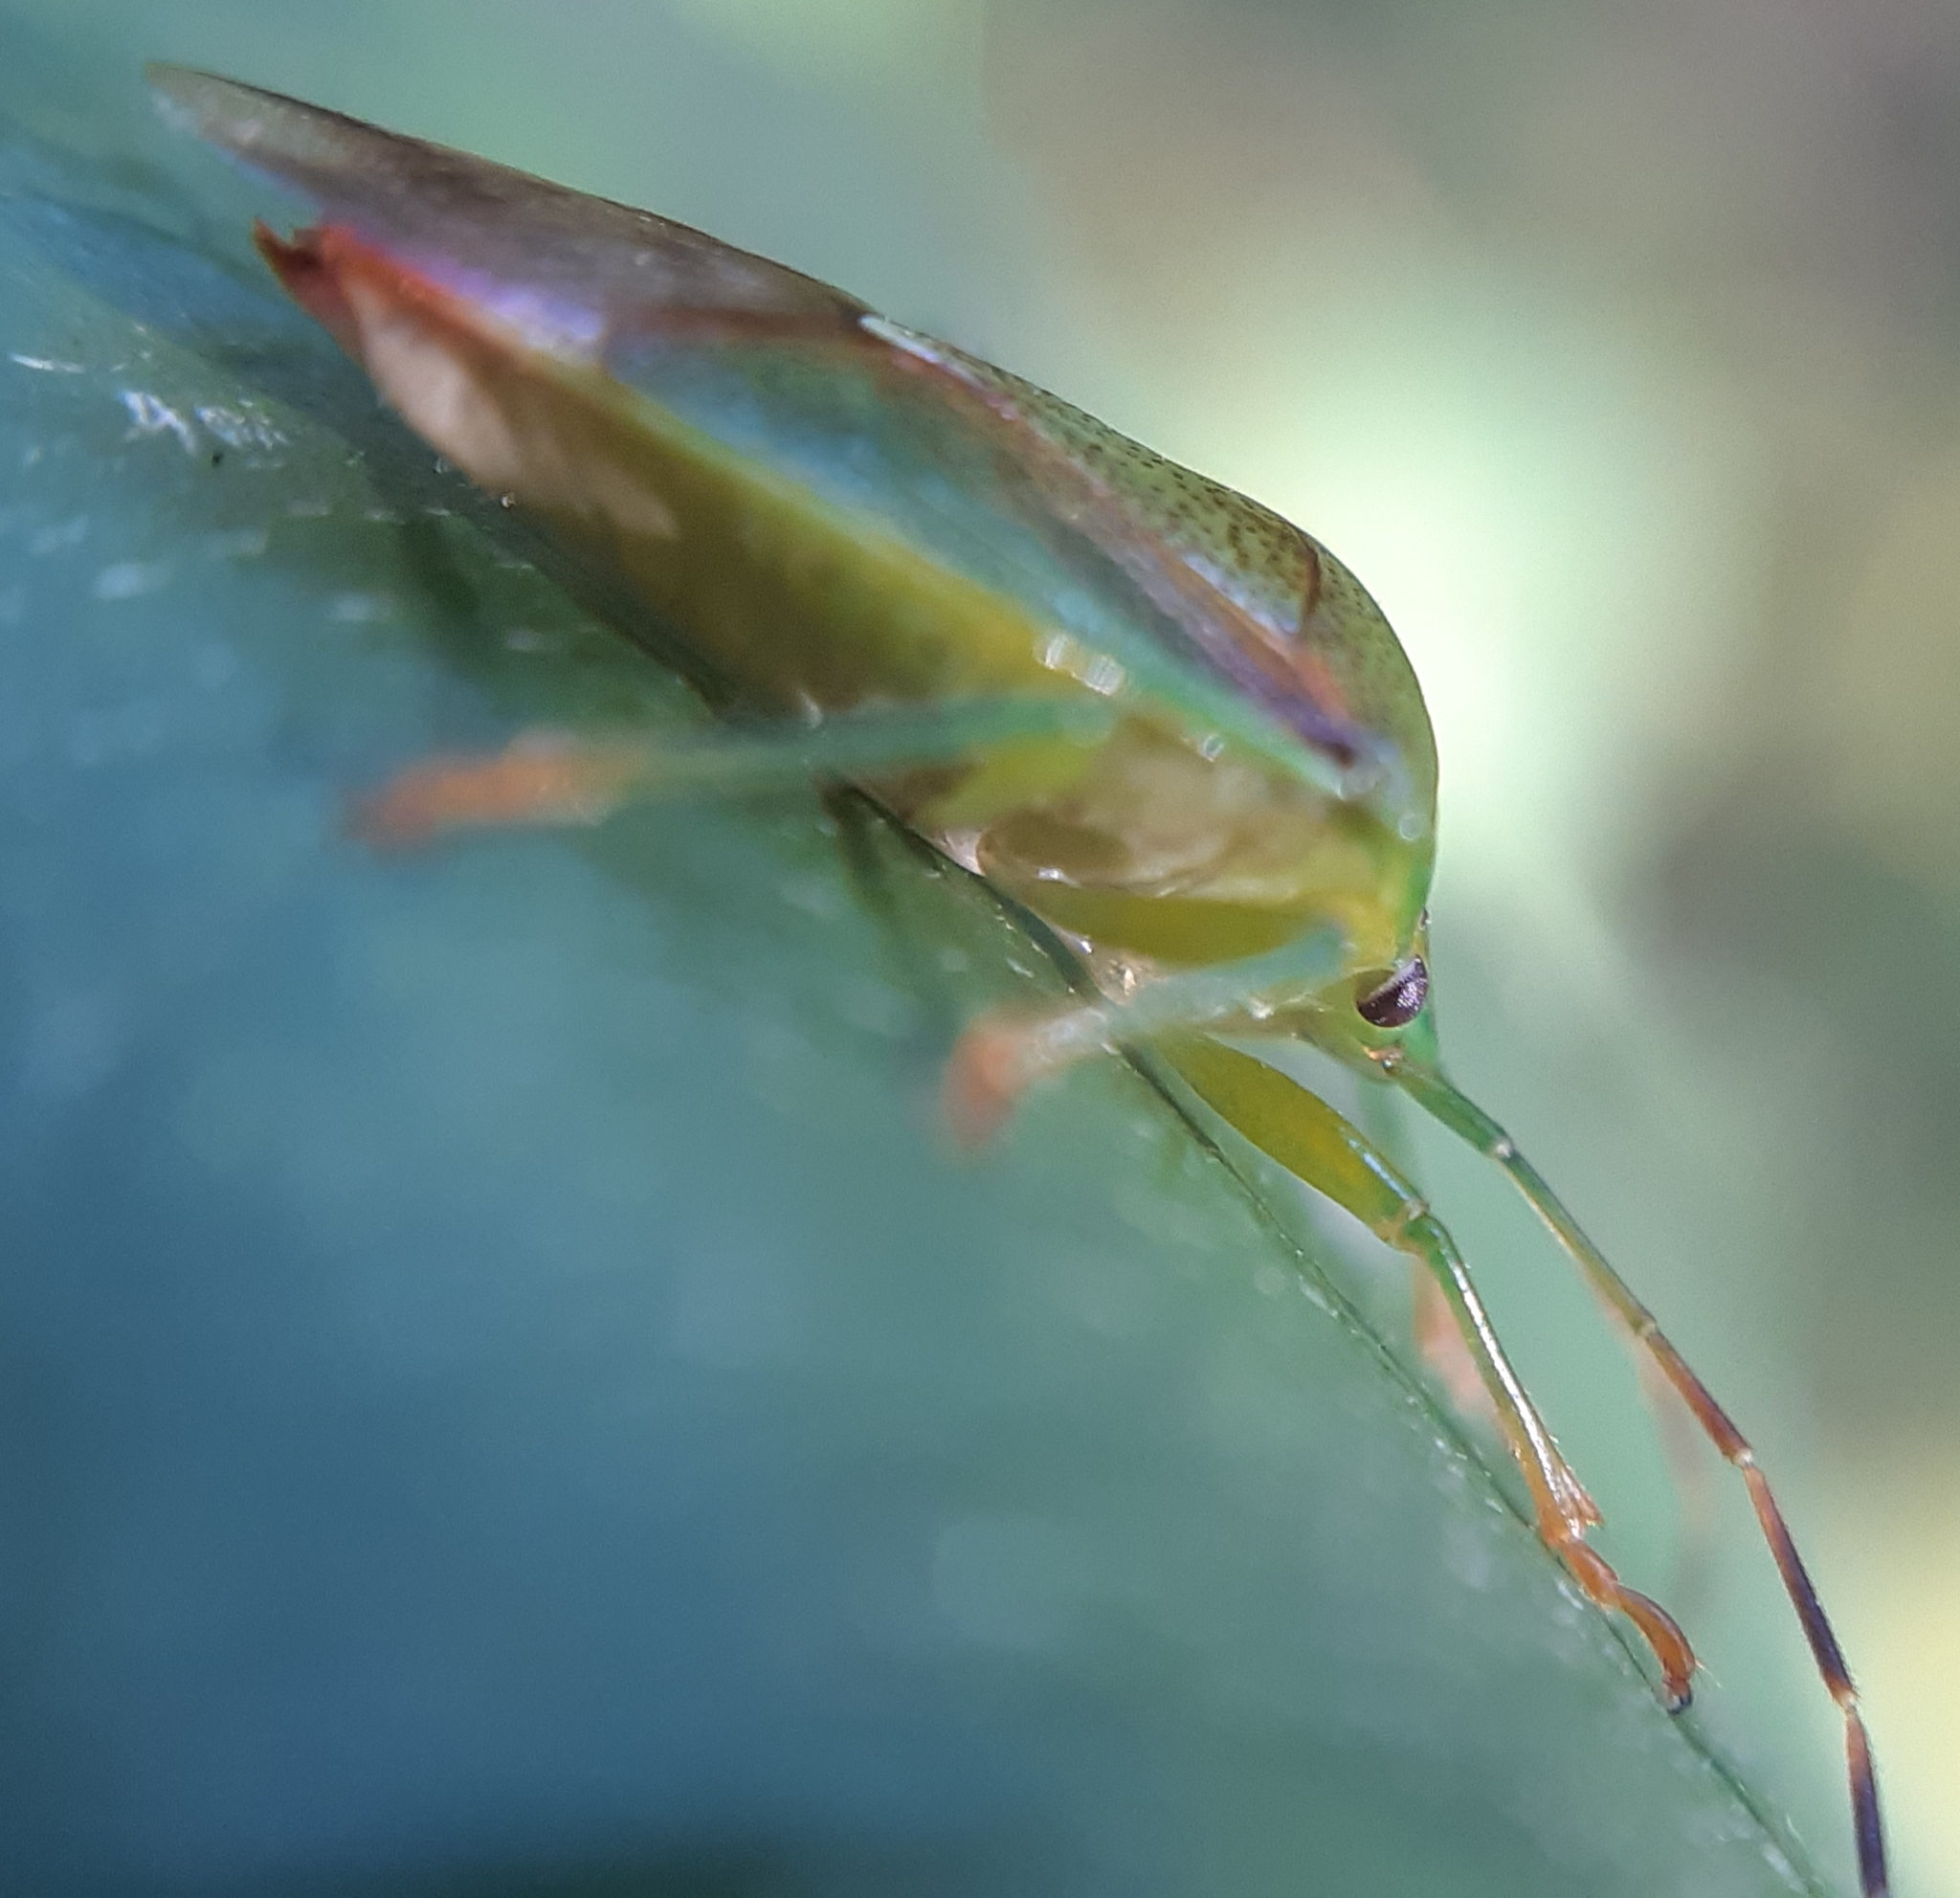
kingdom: Animalia
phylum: Arthropoda
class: Insecta
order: Hemiptera
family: Acanthosomatidae
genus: Elasmostethus
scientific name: Elasmostethus minor
